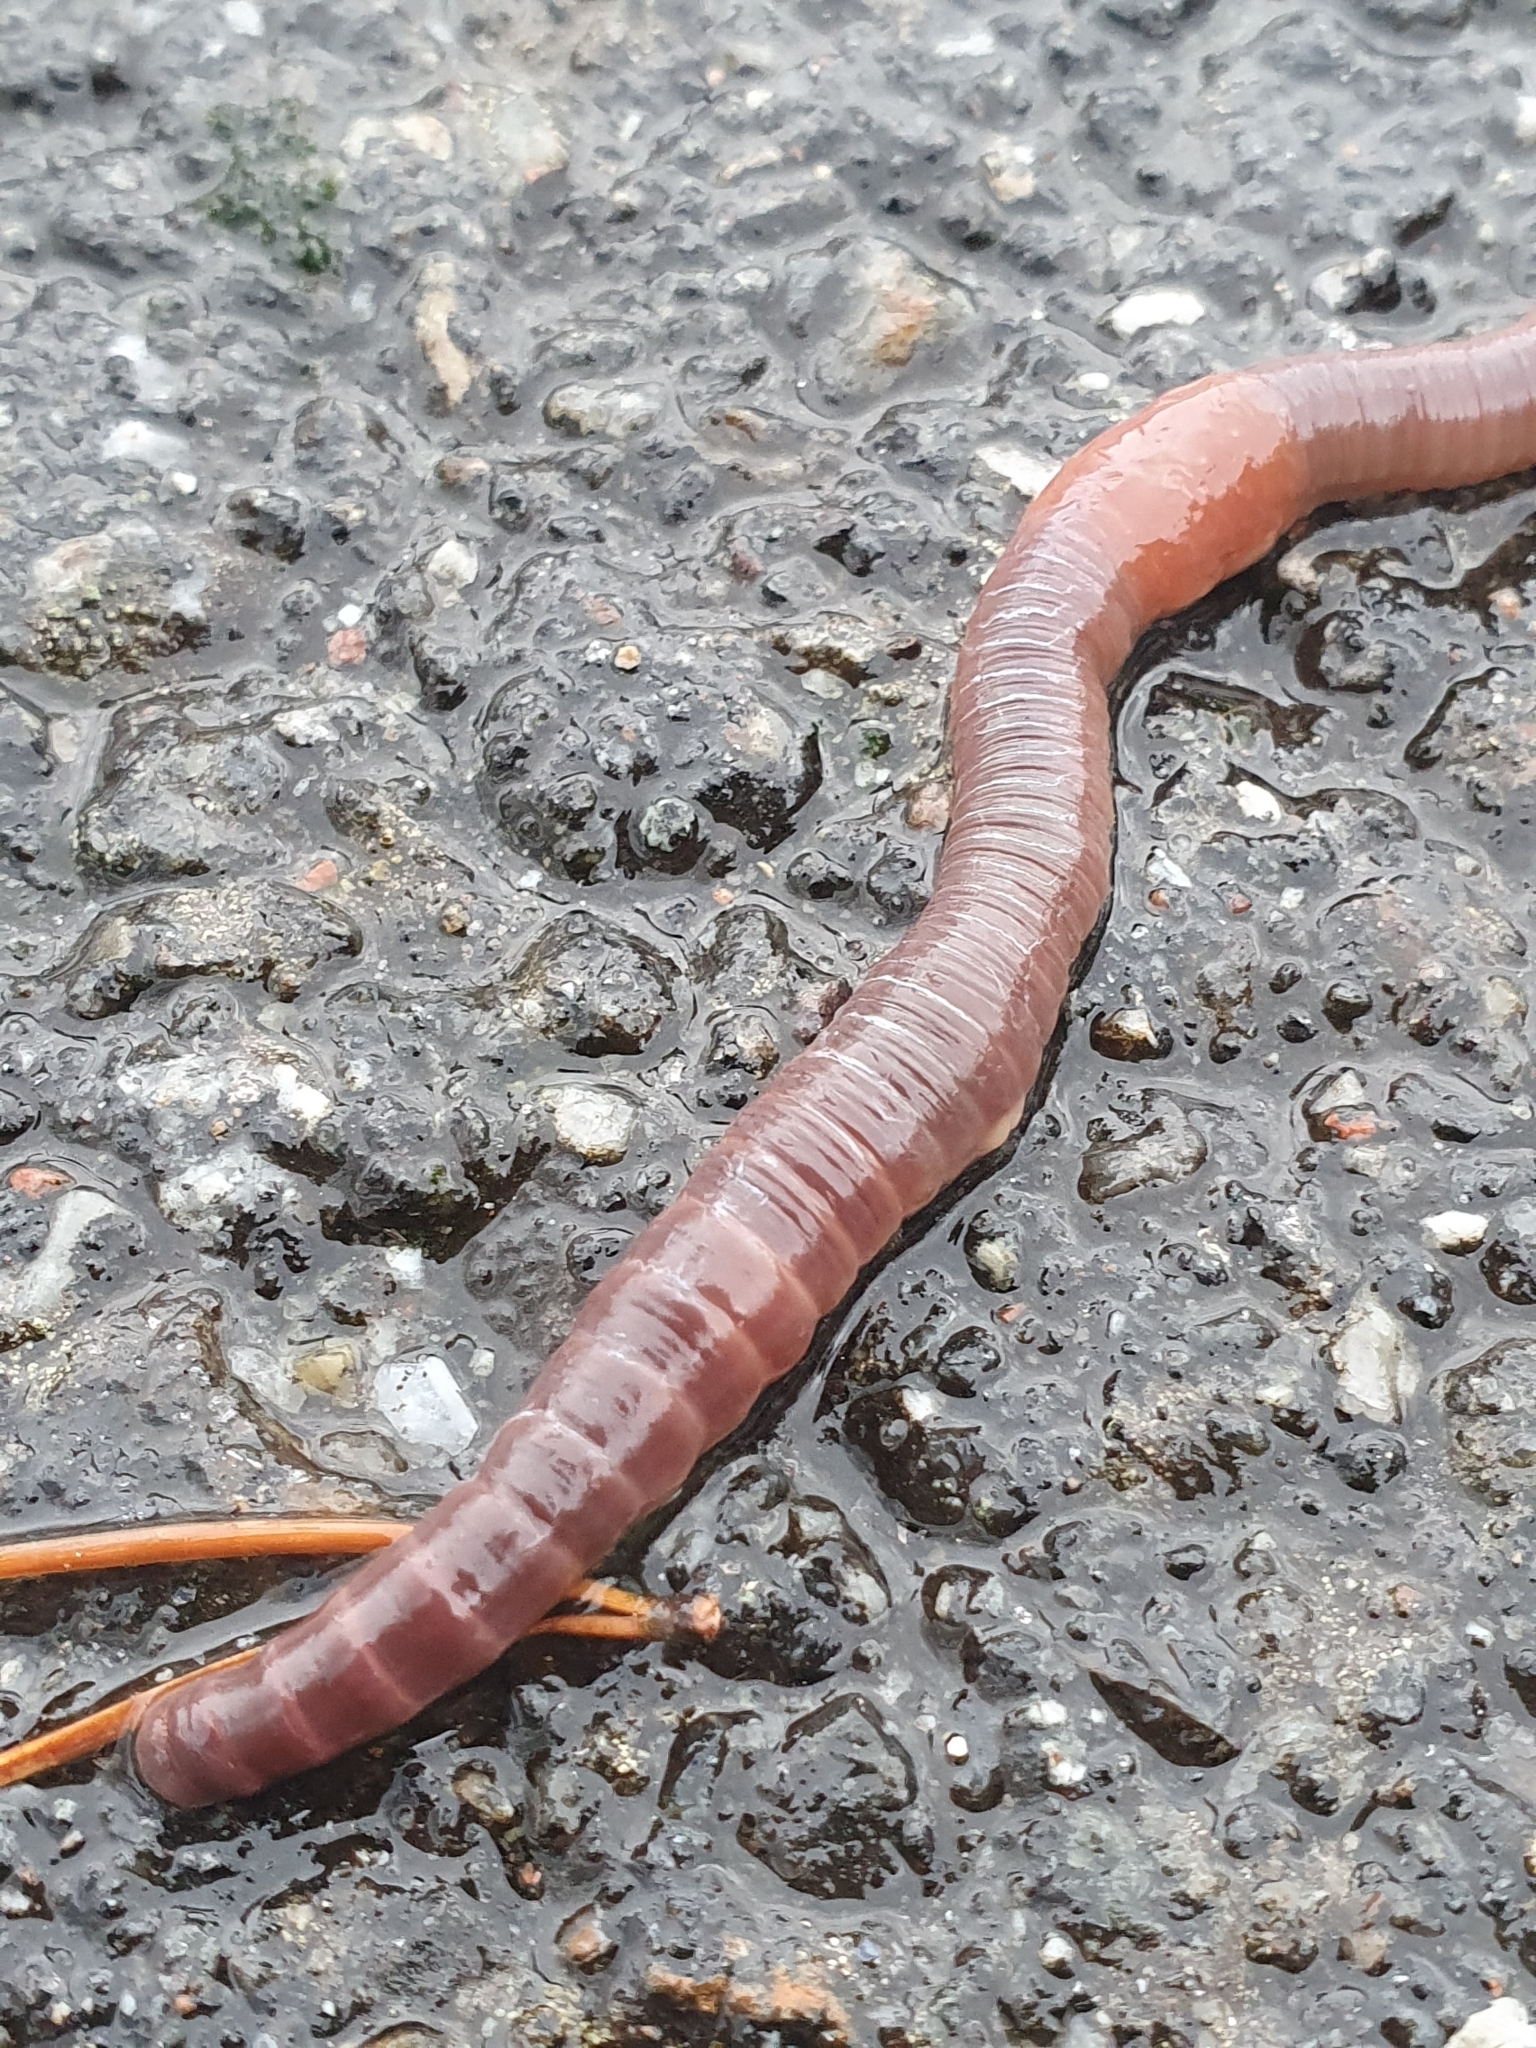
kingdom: Animalia
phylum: Annelida
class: Clitellata
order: Crassiclitellata
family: Lumbricidae
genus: Lumbricus
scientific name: Lumbricus terrestris
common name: Common earthworm
